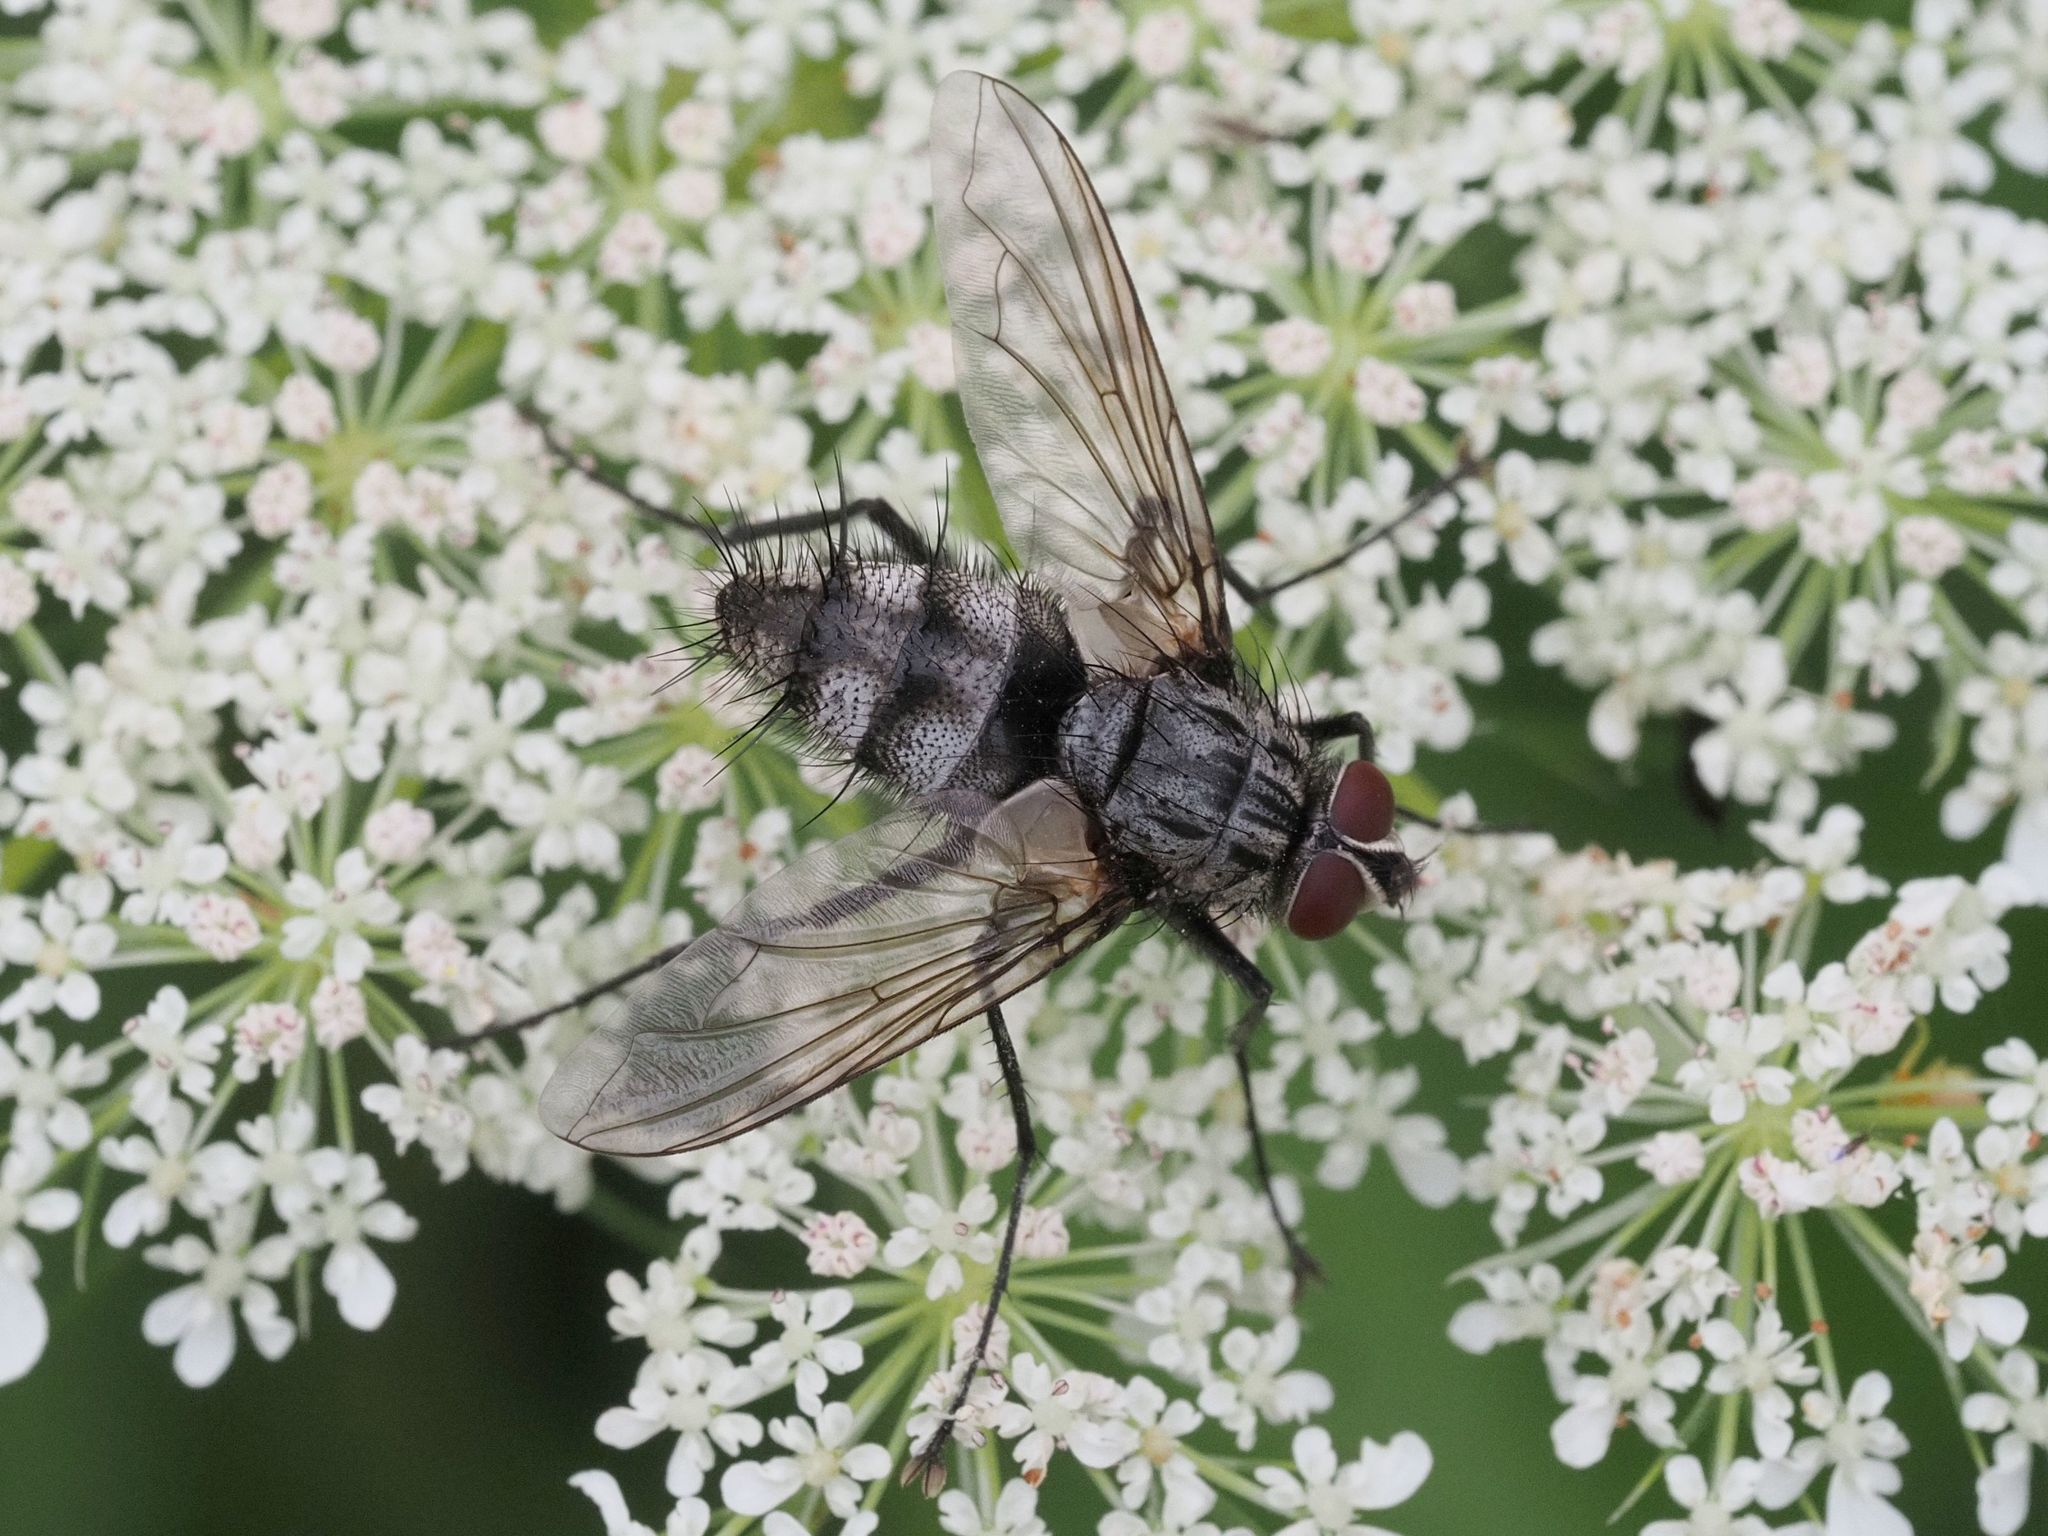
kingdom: Animalia
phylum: Arthropoda
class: Insecta
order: Diptera
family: Tachinidae
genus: Dinera
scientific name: Dinera ferina
